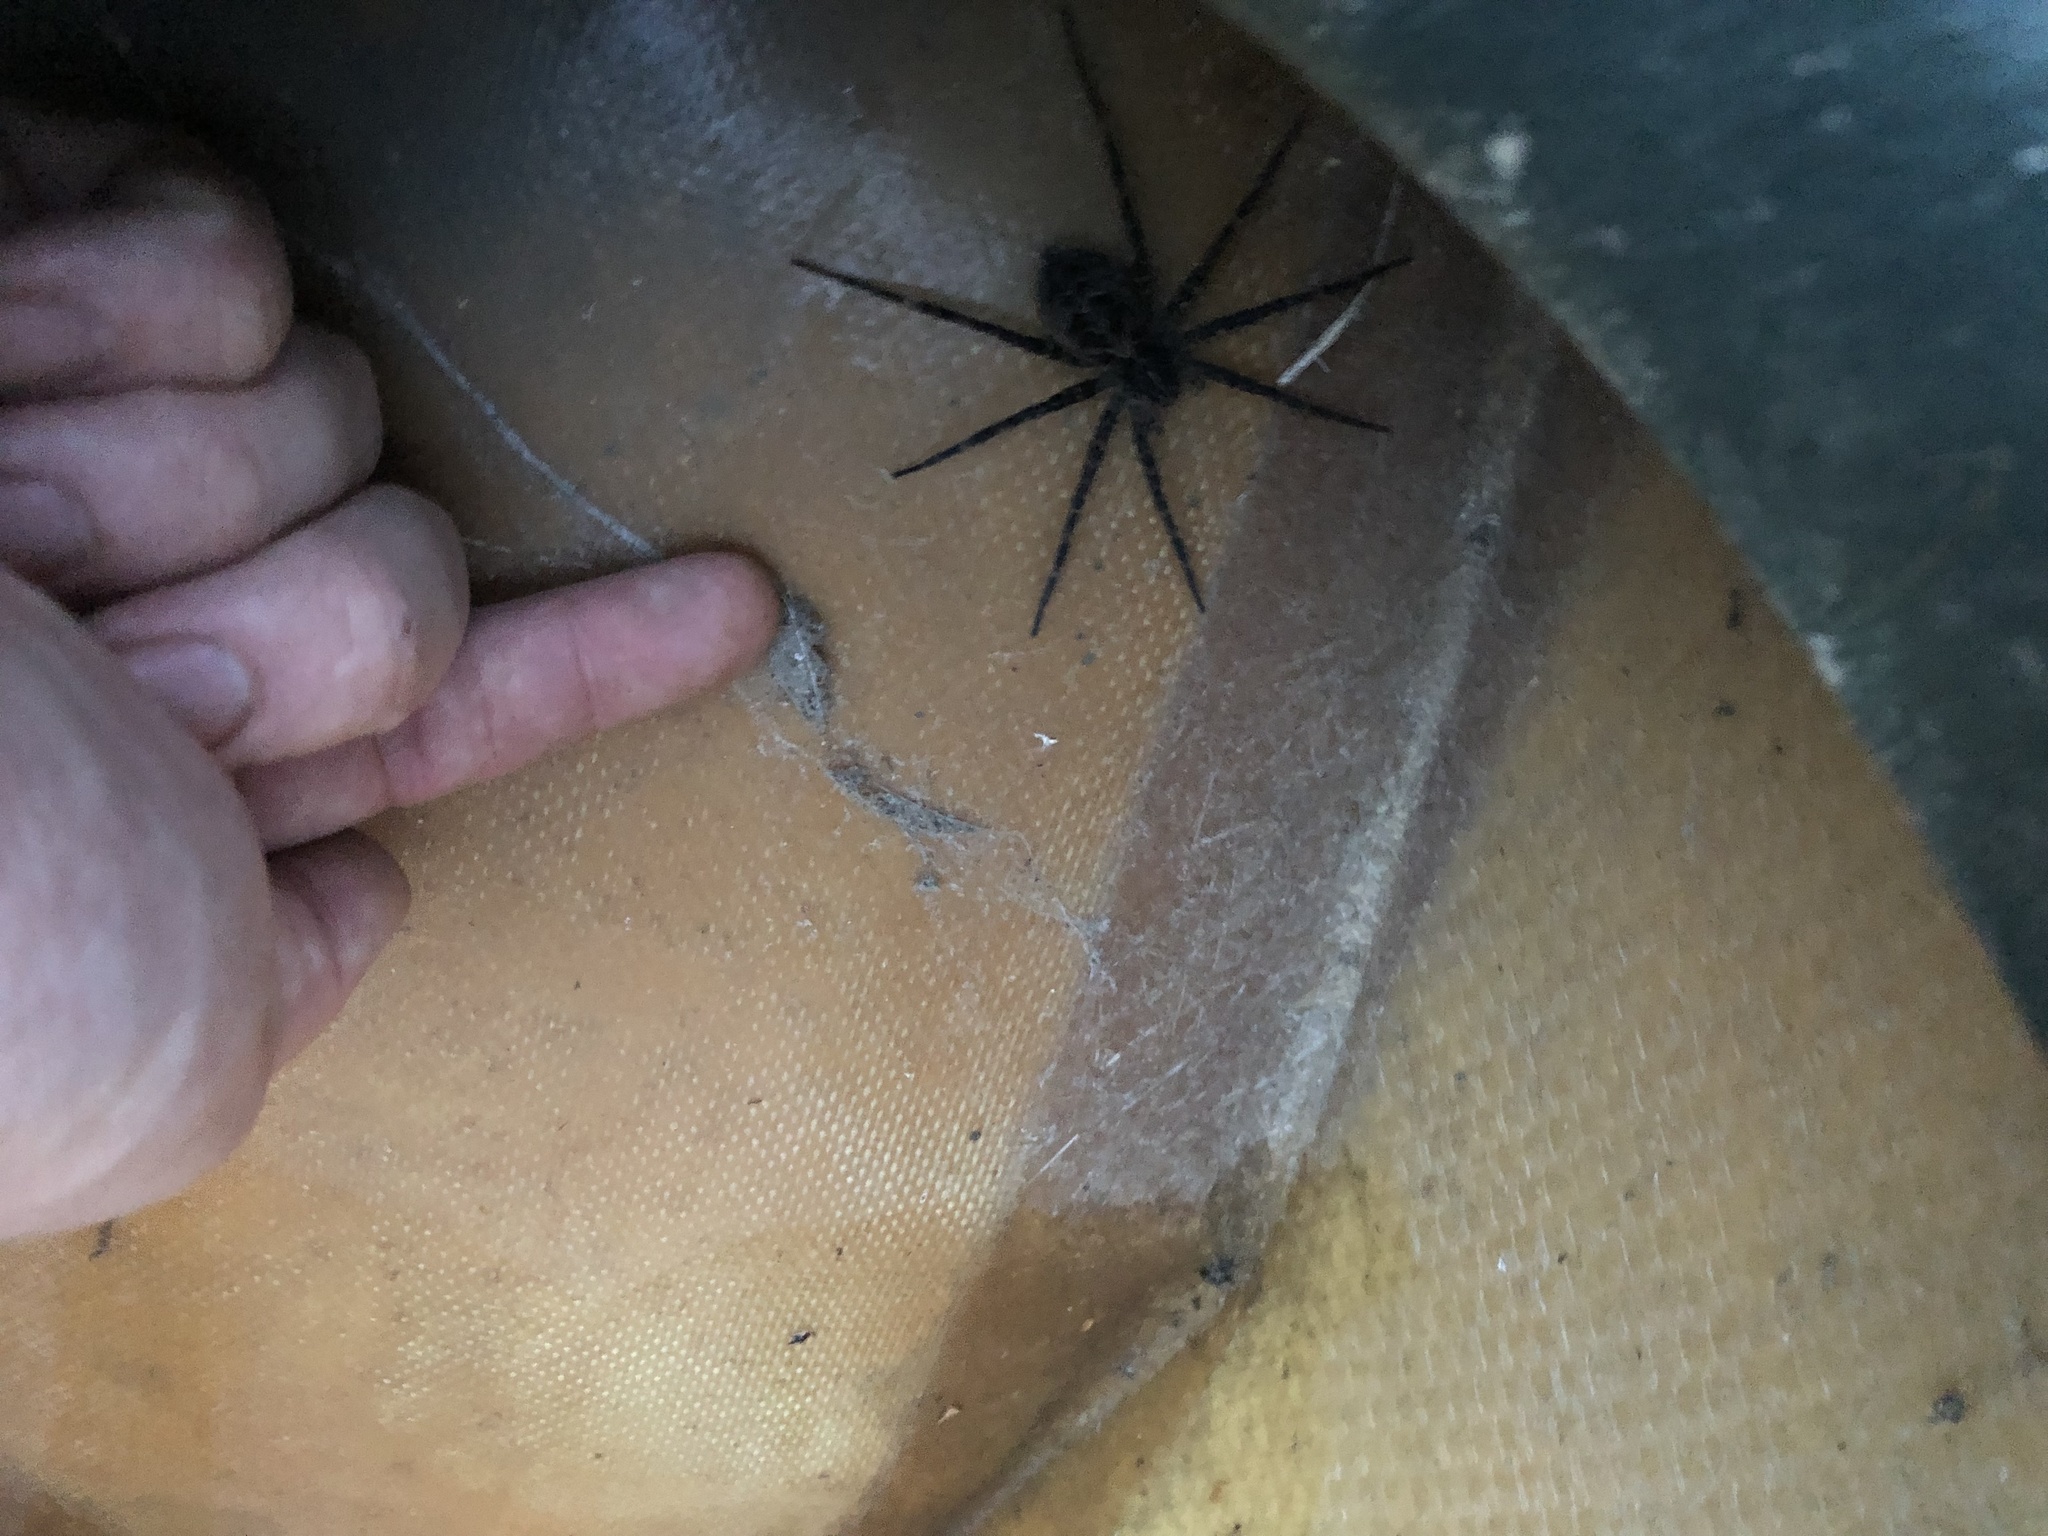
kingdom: Animalia
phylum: Arthropoda
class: Arachnida
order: Araneae
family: Pisauridae
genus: Dolomedes
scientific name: Dolomedes scriptus
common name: Striped fishing spider
